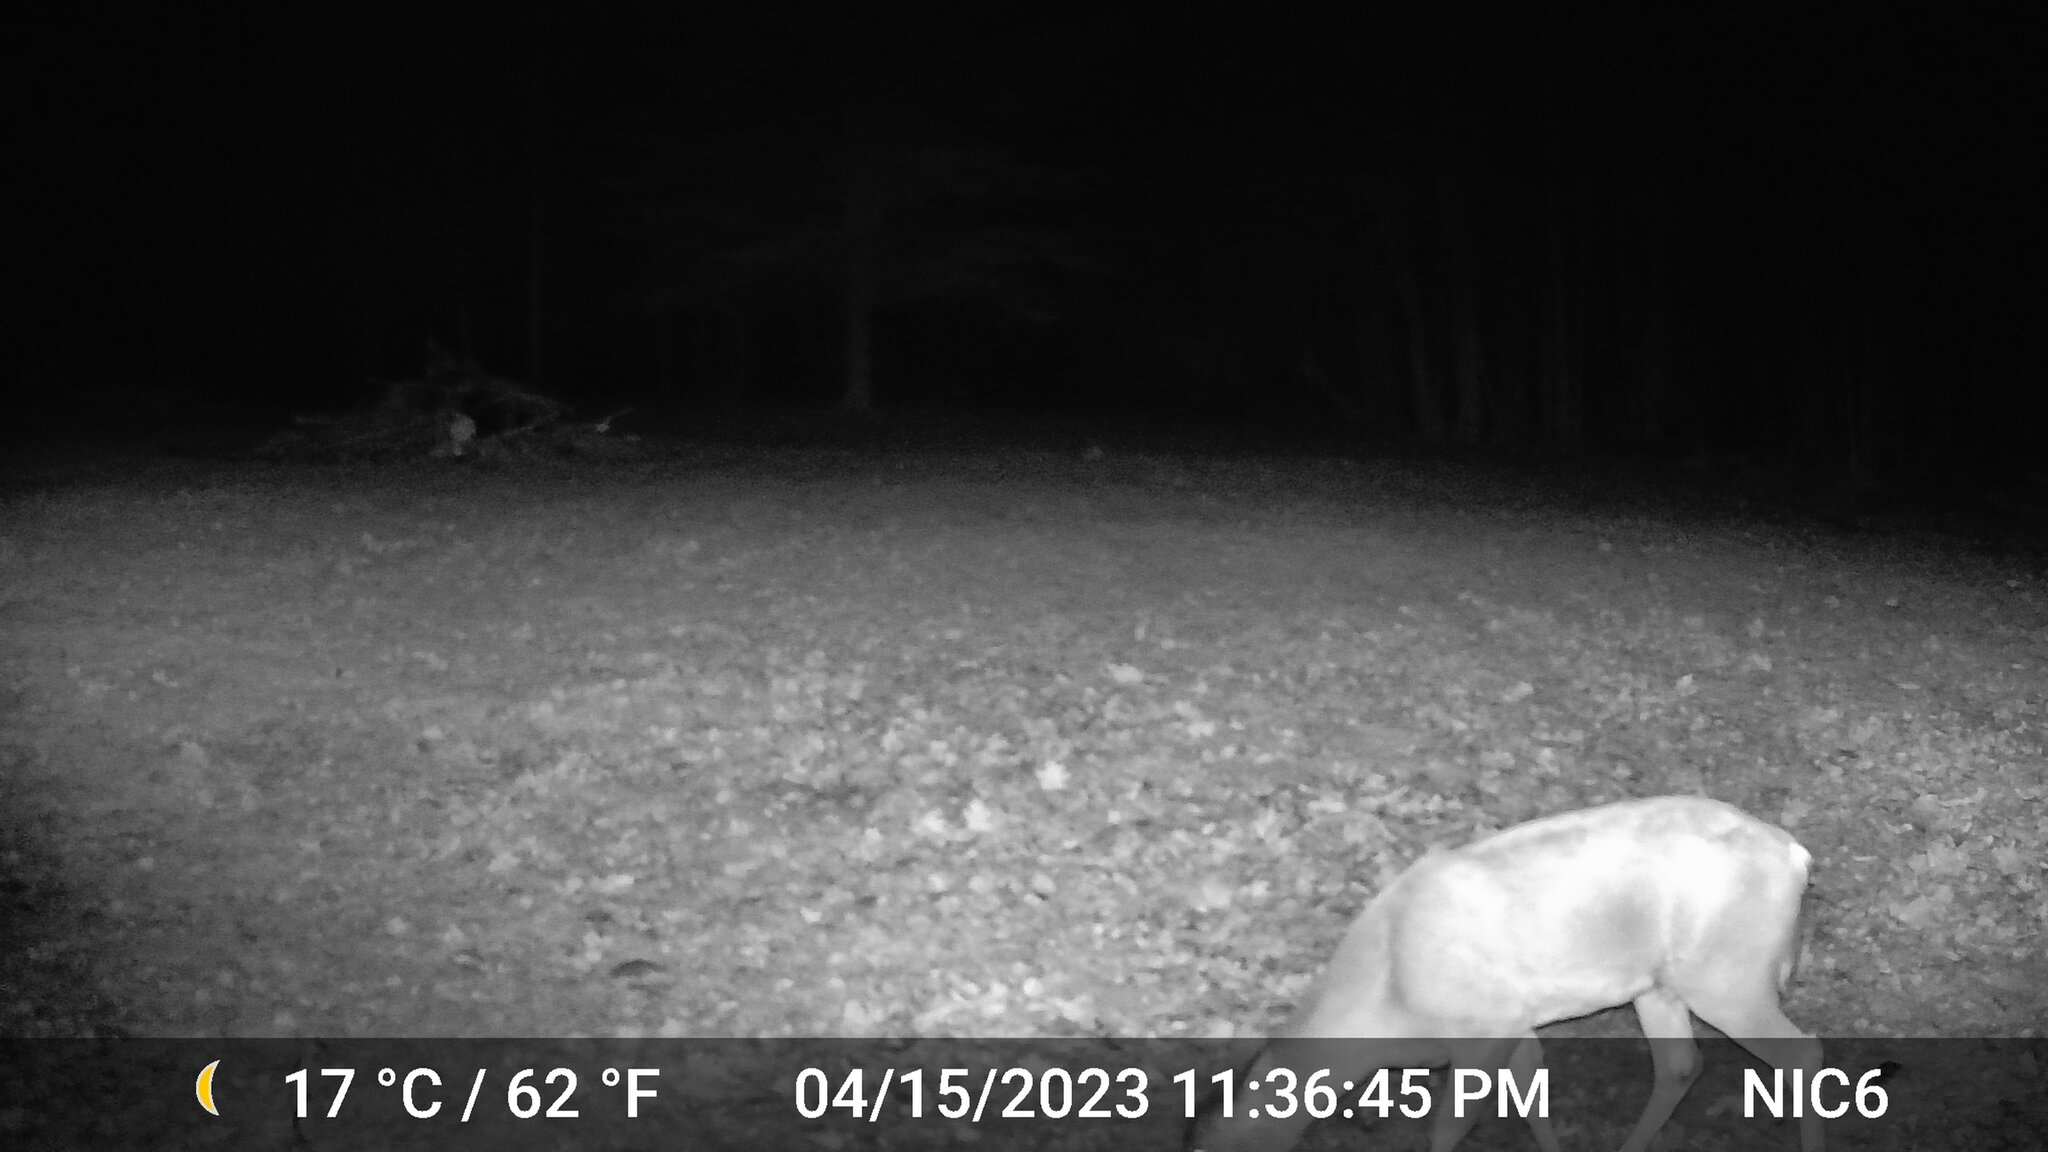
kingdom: Animalia
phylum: Chordata
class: Mammalia
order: Artiodactyla
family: Cervidae
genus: Odocoileus
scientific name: Odocoileus virginianus
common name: White-tailed deer
